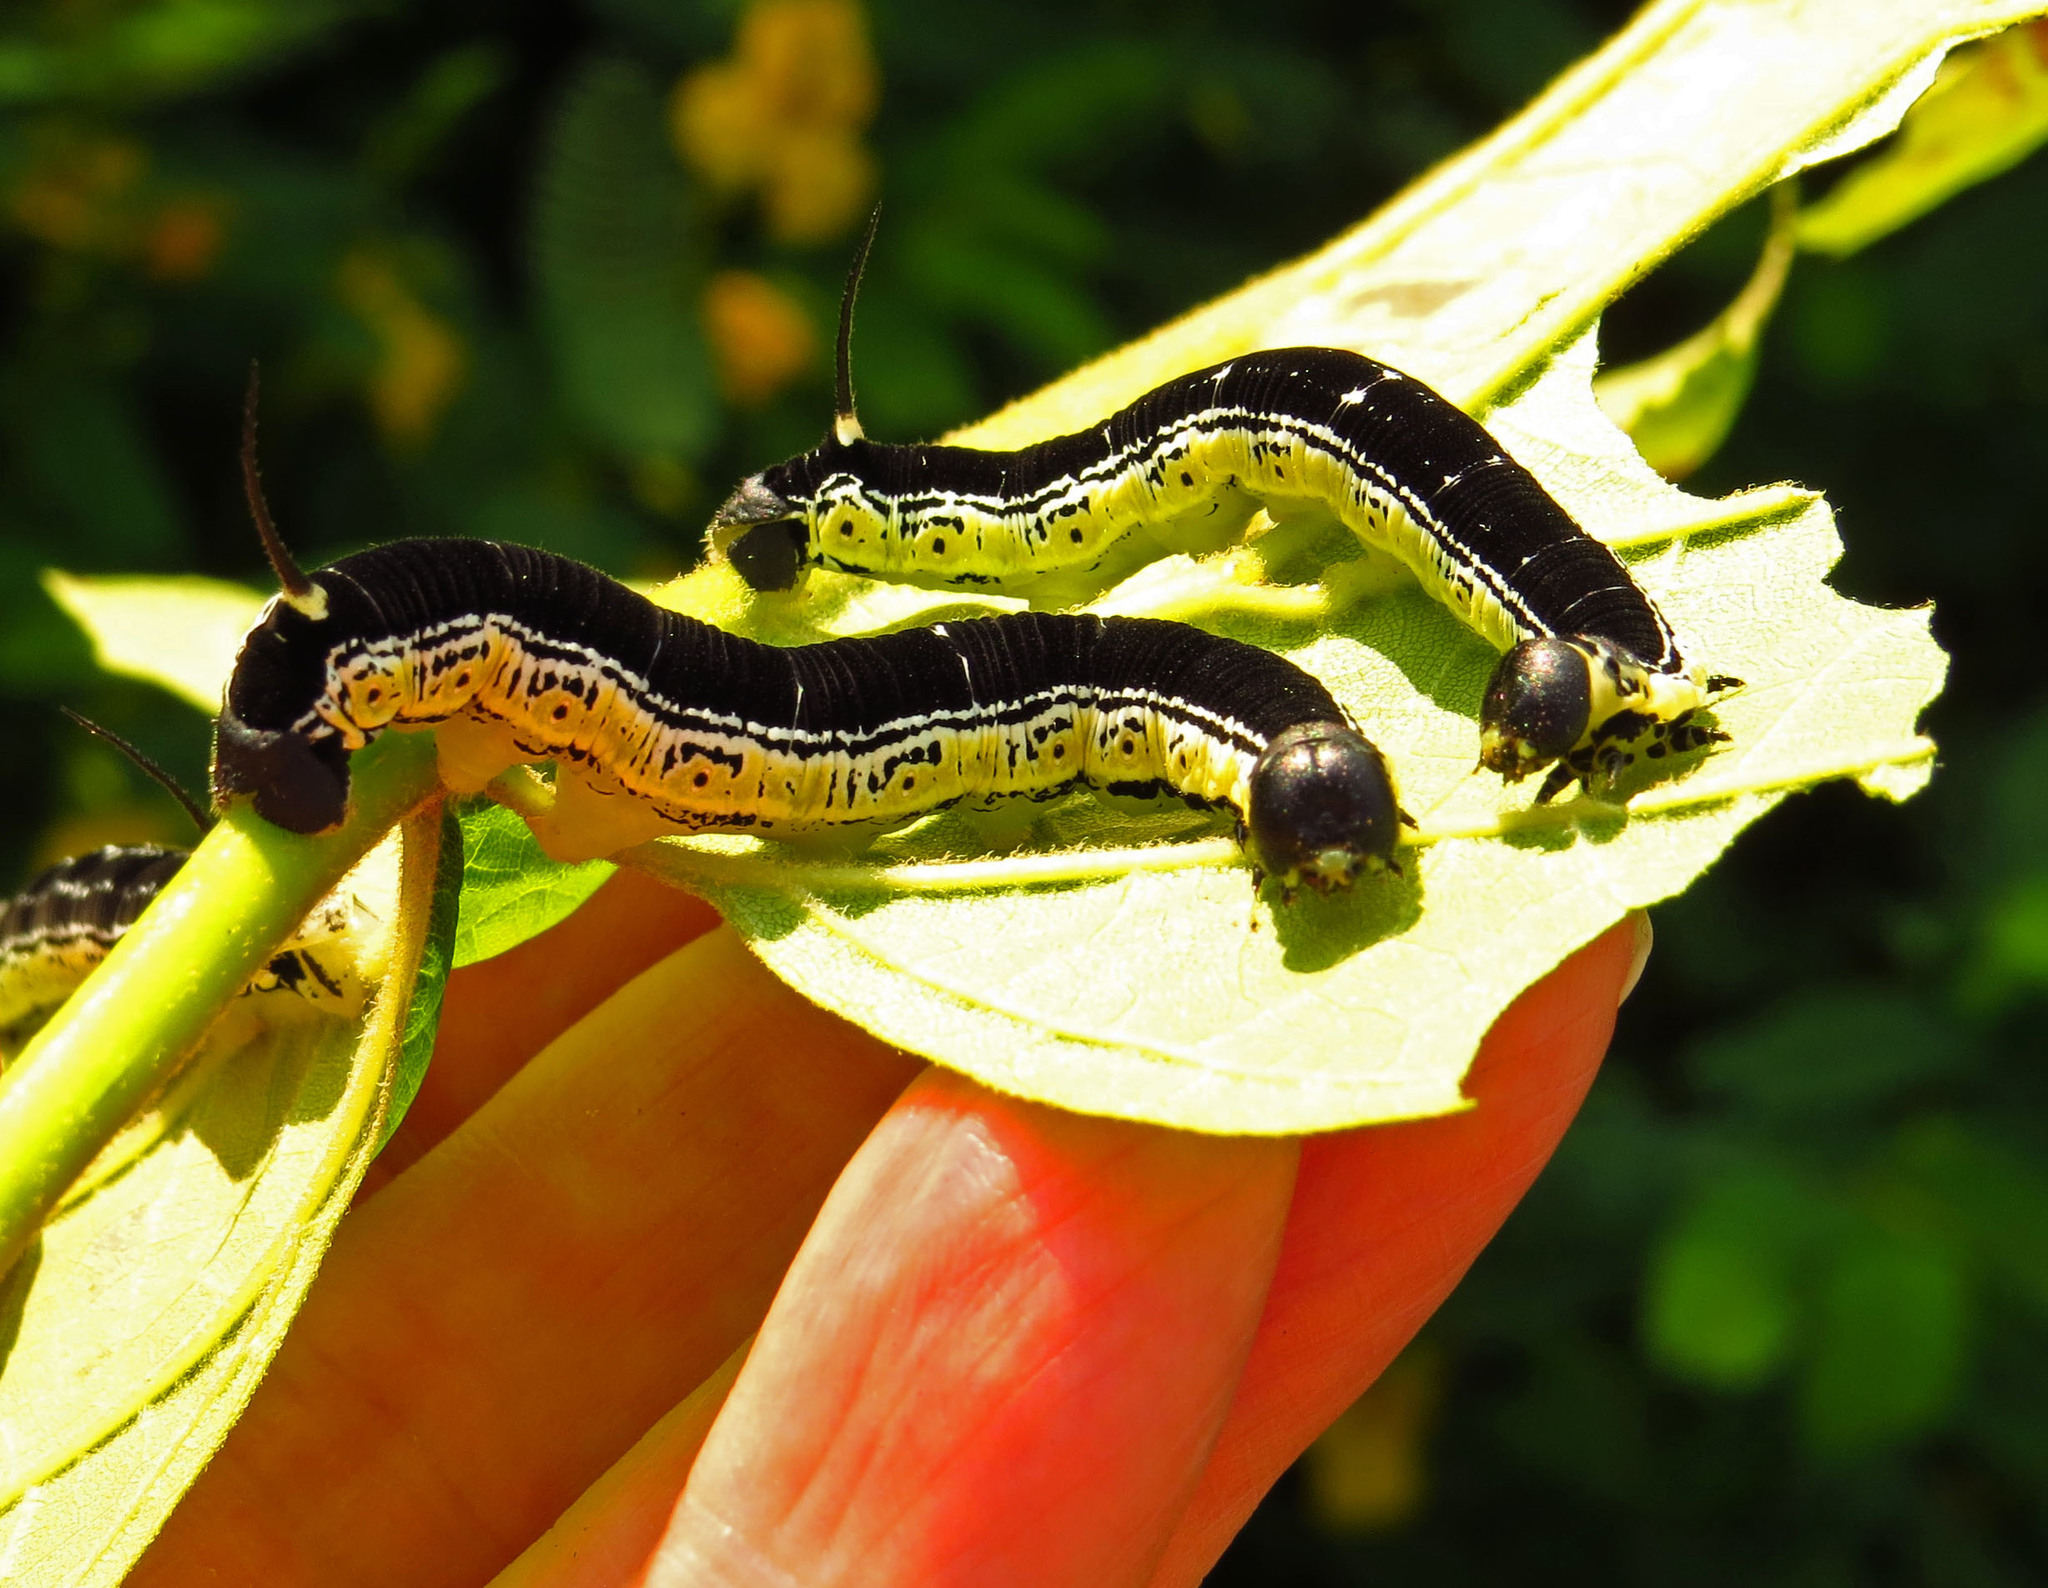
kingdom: Animalia
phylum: Arthropoda
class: Insecta
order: Lepidoptera
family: Sphingidae
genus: Ceratomia
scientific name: Ceratomia catalpae
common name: Catalpa hornworm
